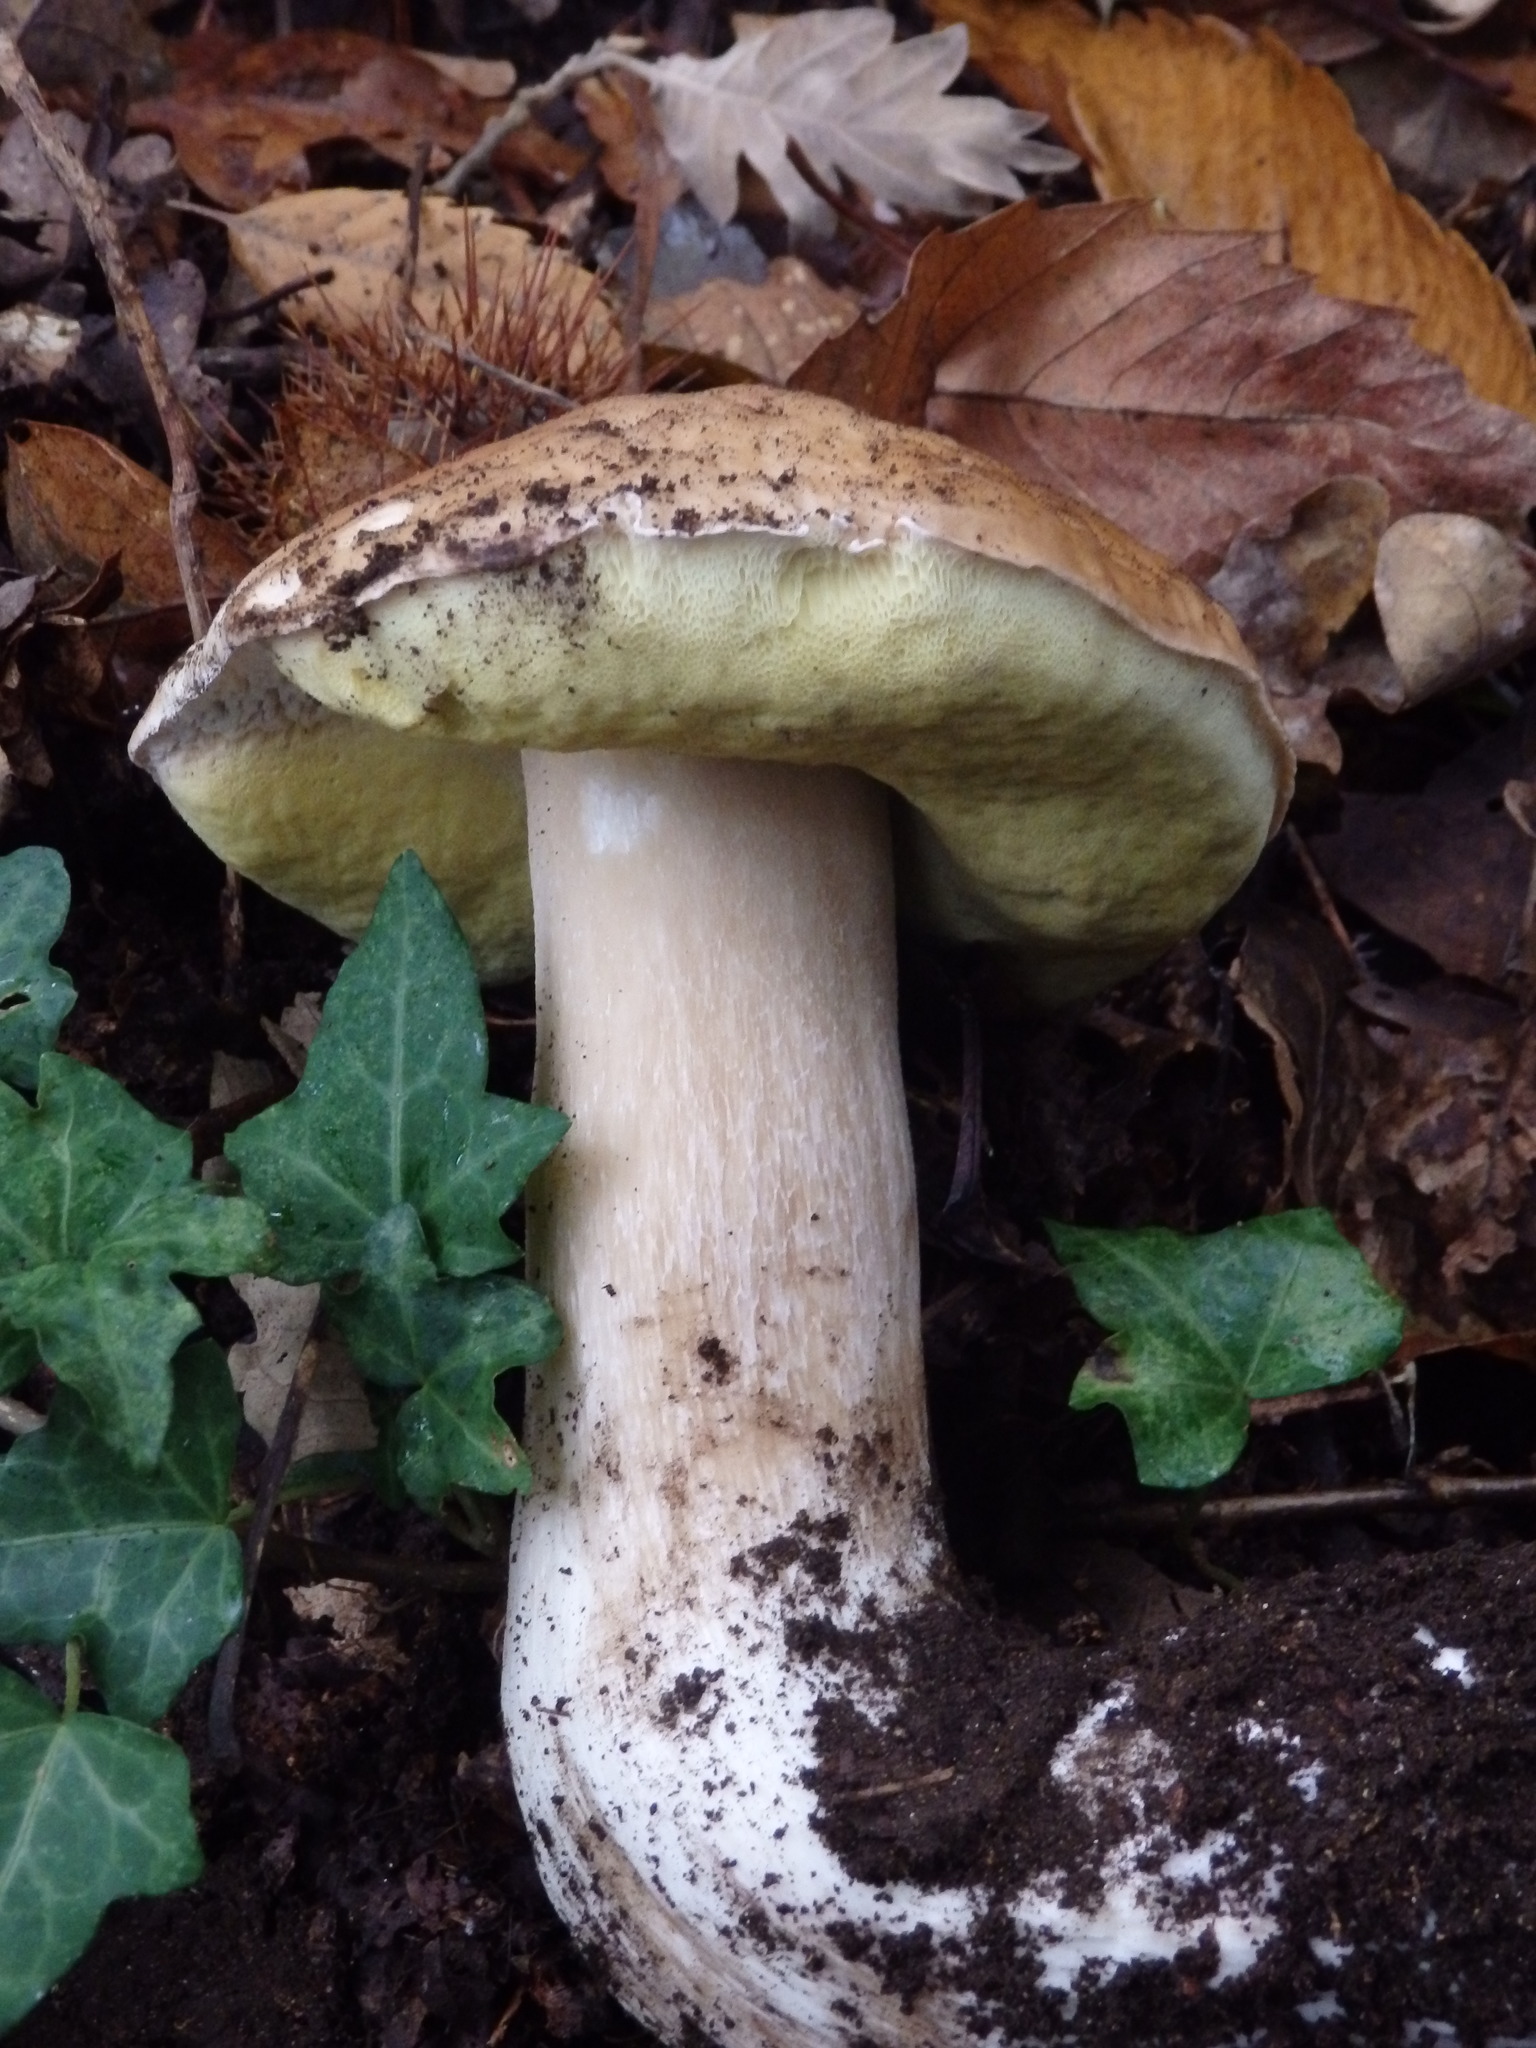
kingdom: Fungi
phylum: Basidiomycota
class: Agaricomycetes
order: Boletales
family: Boletaceae
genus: Boletus
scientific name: Boletus edulis
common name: Cep
